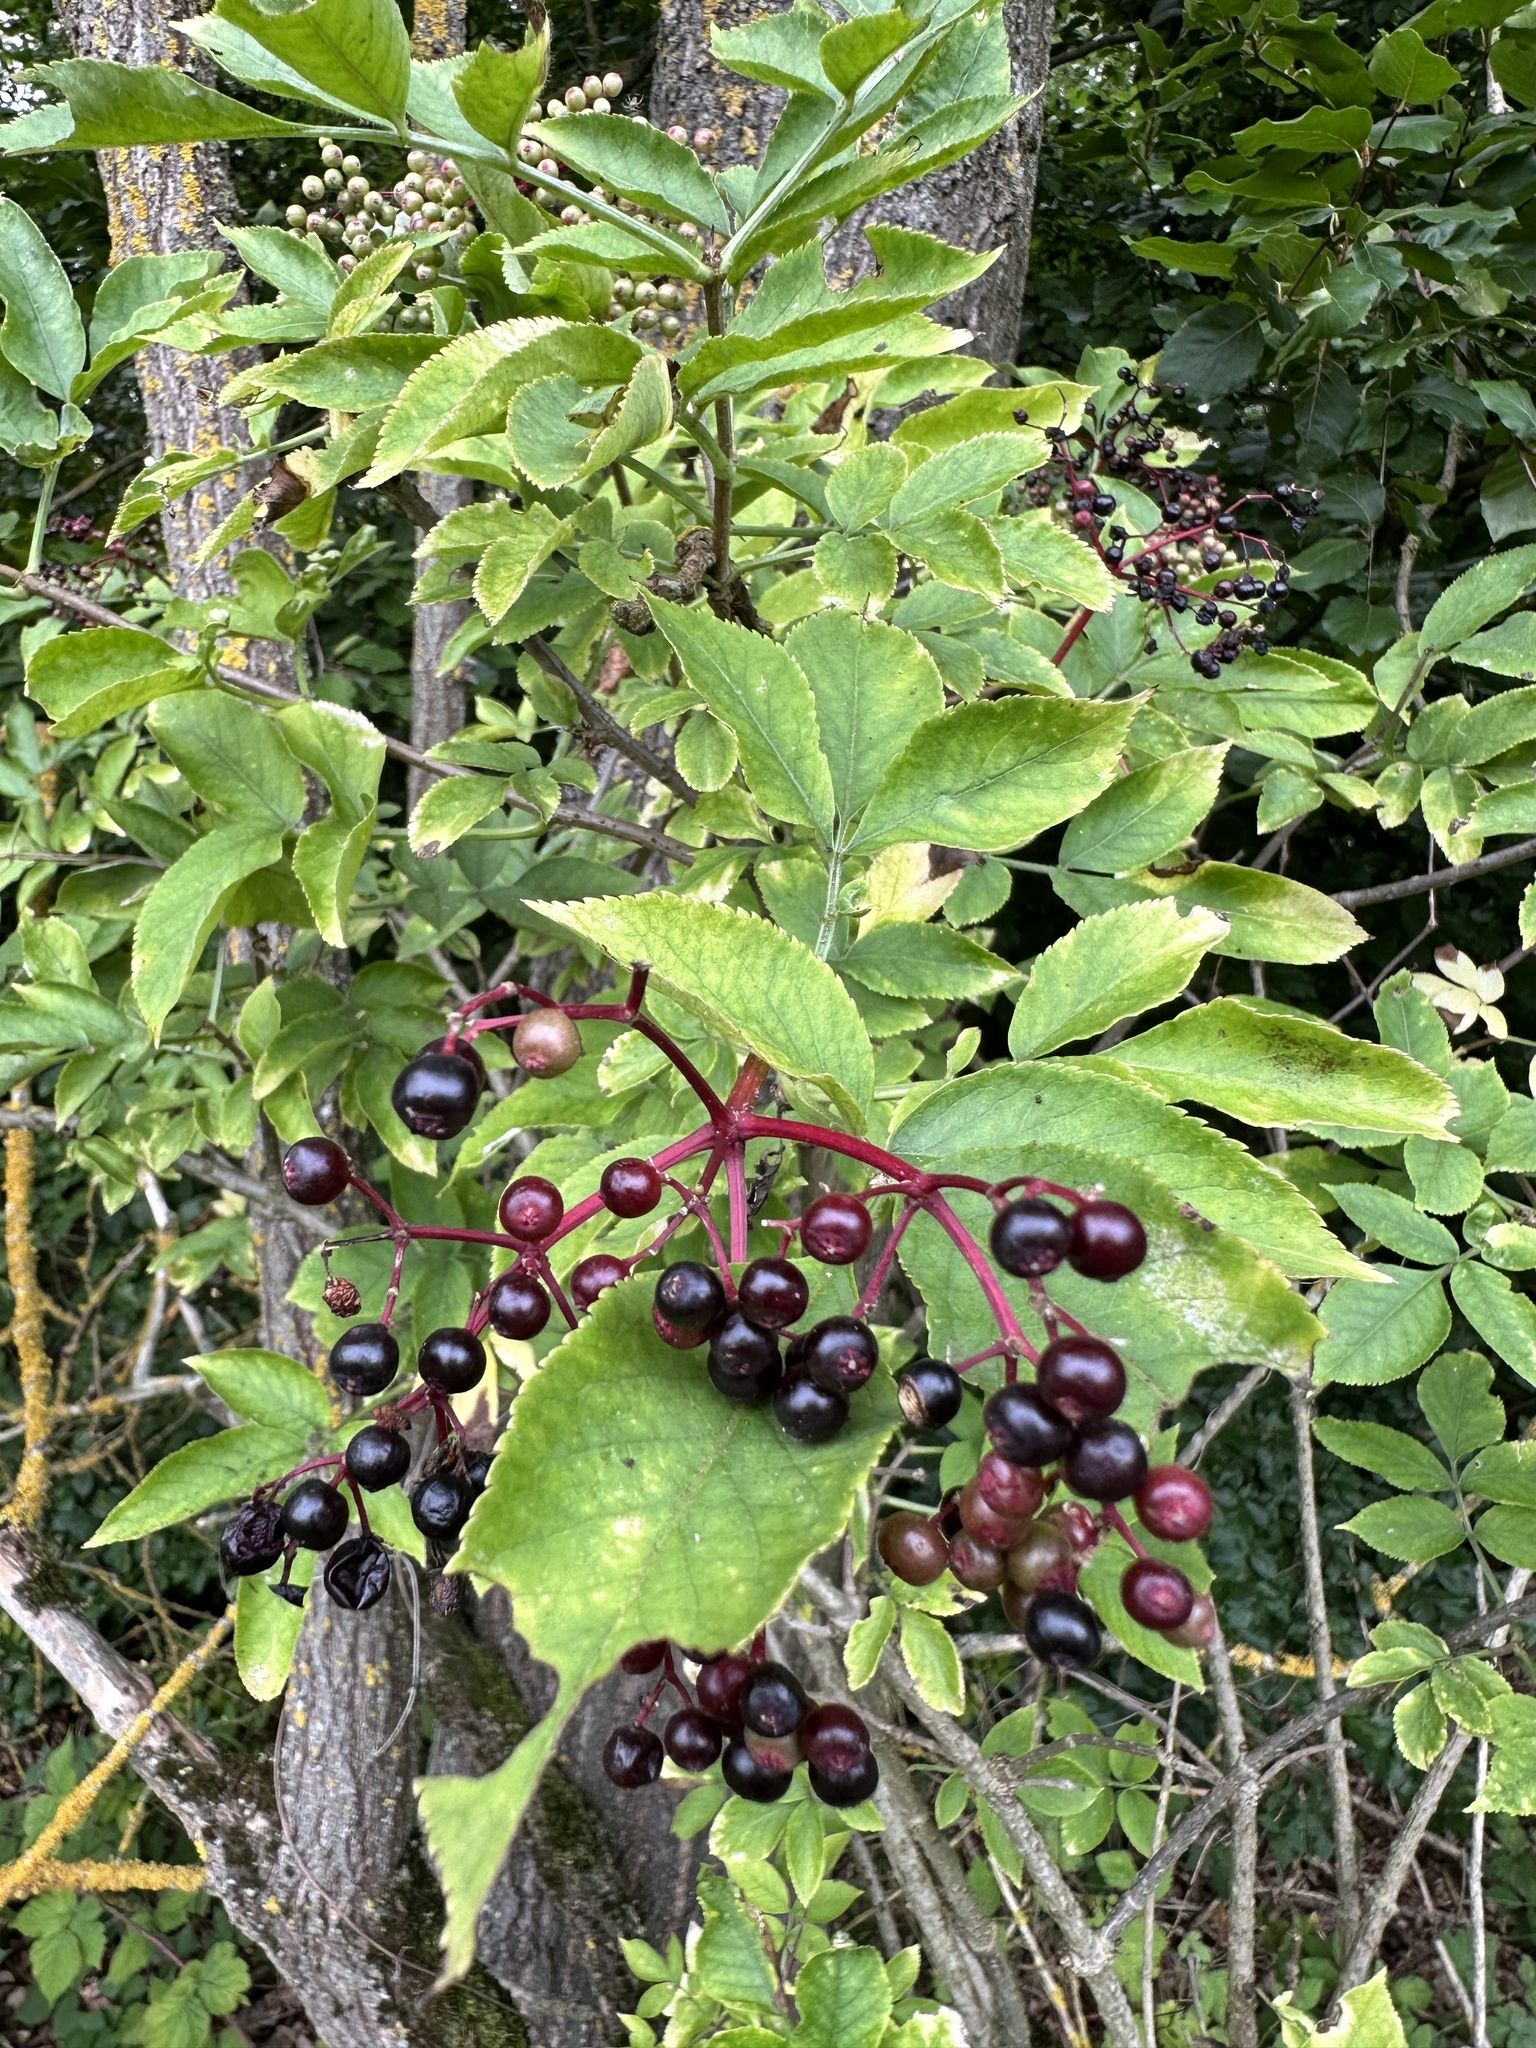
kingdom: Plantae
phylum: Tracheophyta
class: Magnoliopsida
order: Dipsacales
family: Viburnaceae
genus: Sambucus
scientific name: Sambucus nigra
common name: Elder
